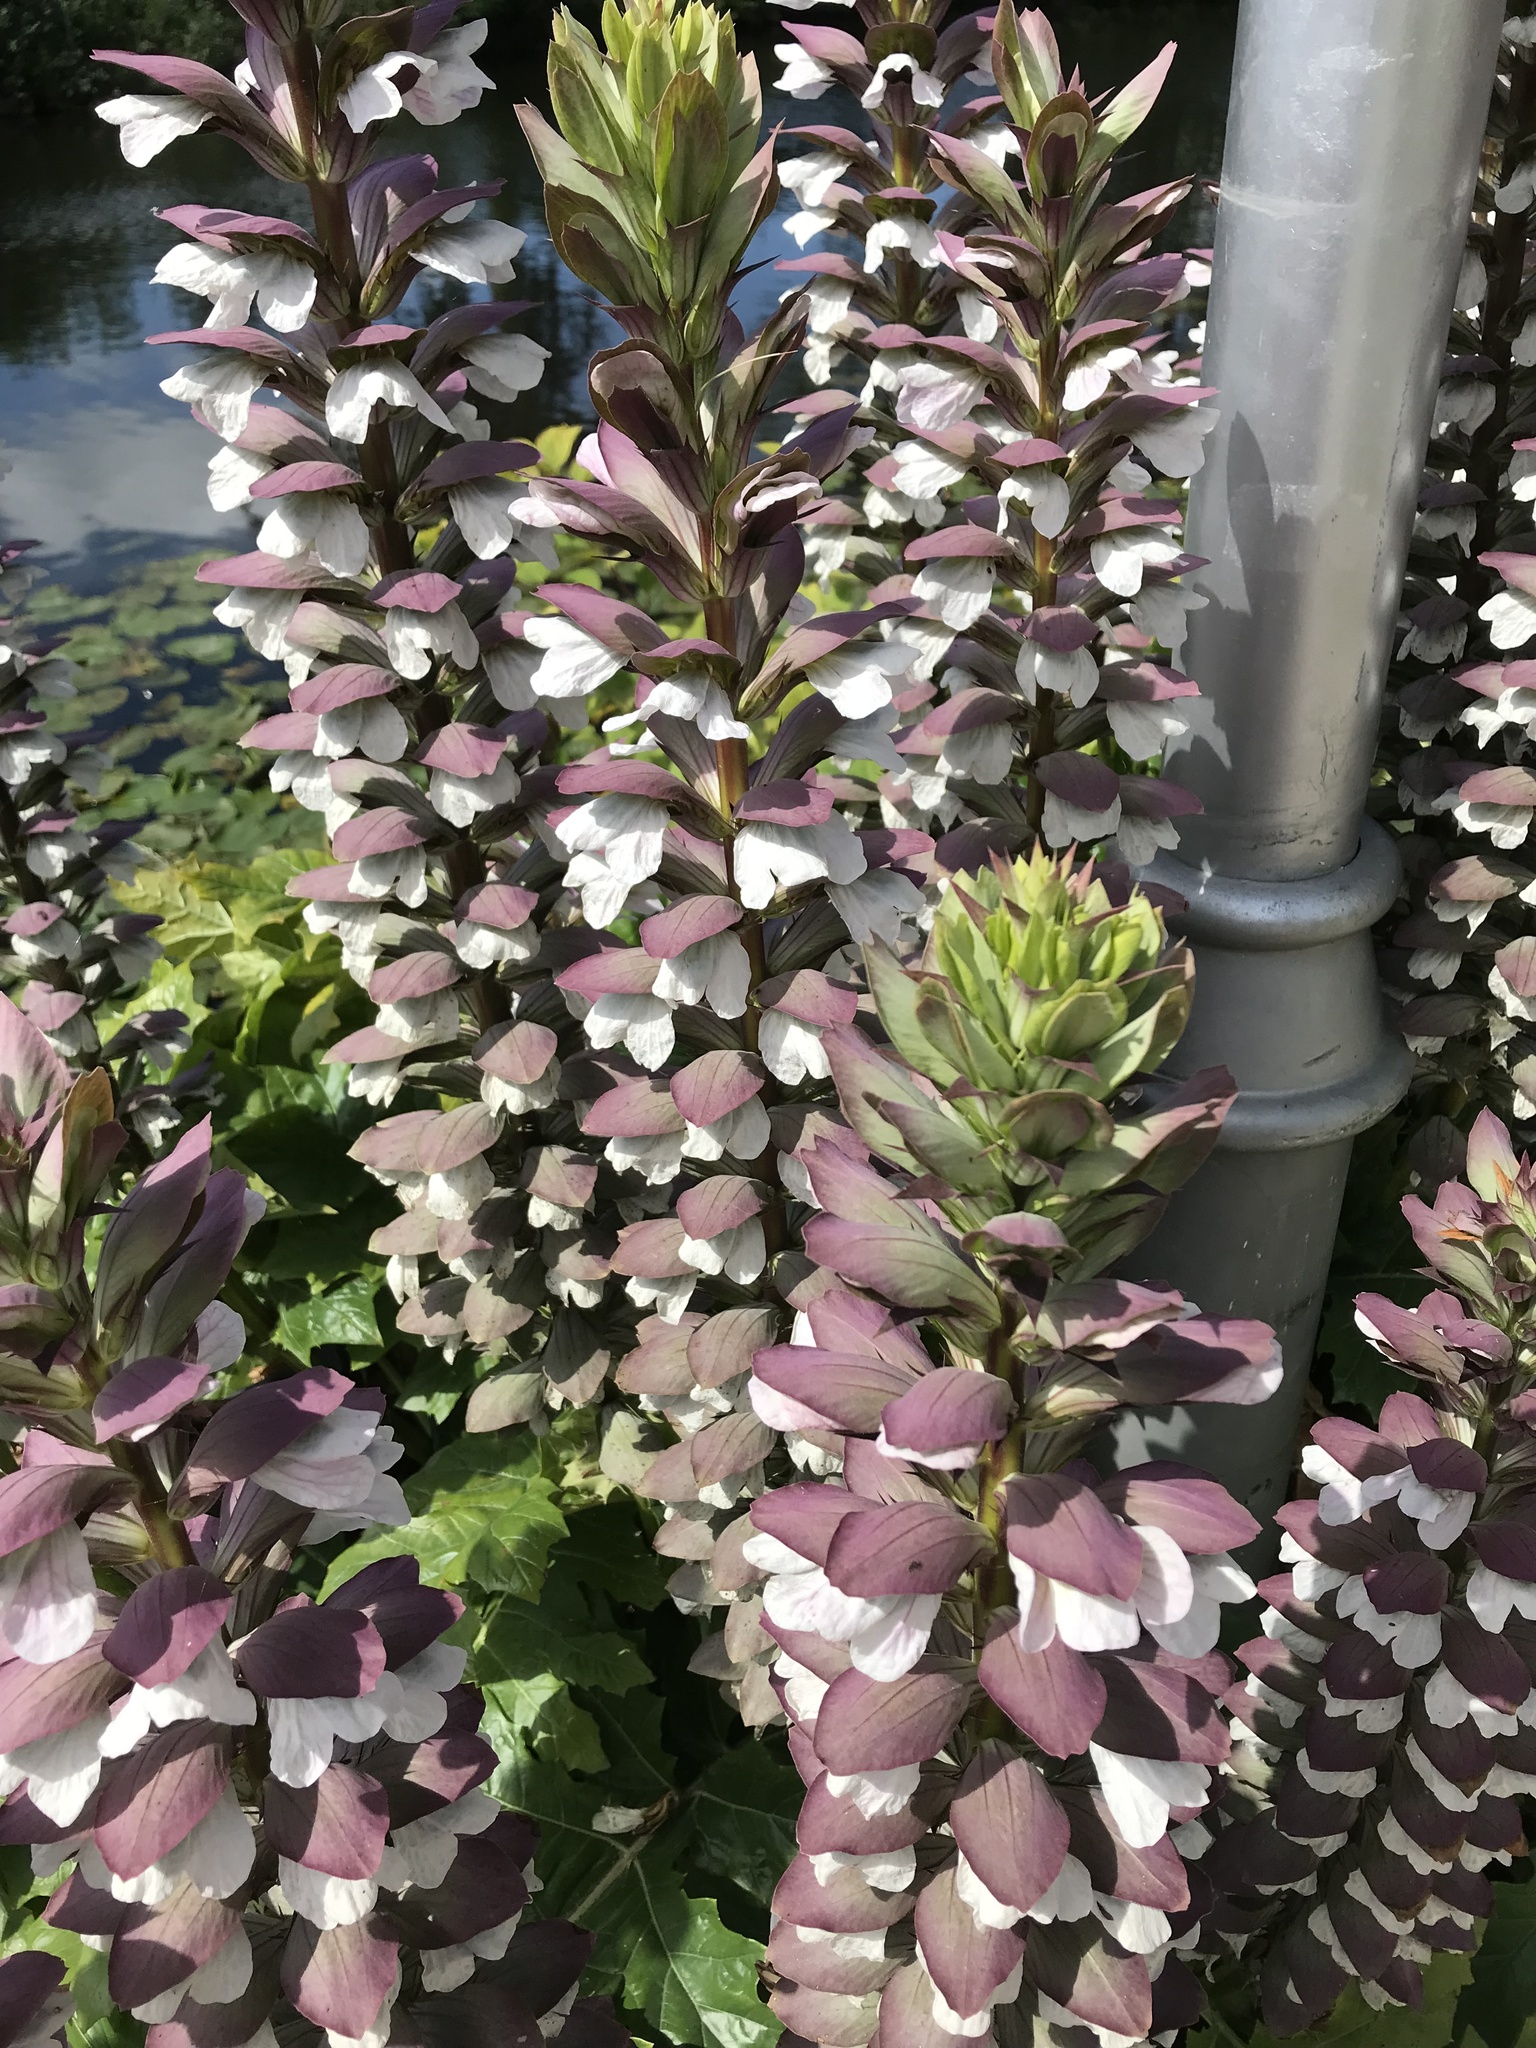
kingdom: Plantae
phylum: Tracheophyta
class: Magnoliopsida
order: Lamiales
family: Acanthaceae
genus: Acanthus
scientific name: Acanthus mollis
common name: Bear's-breech
